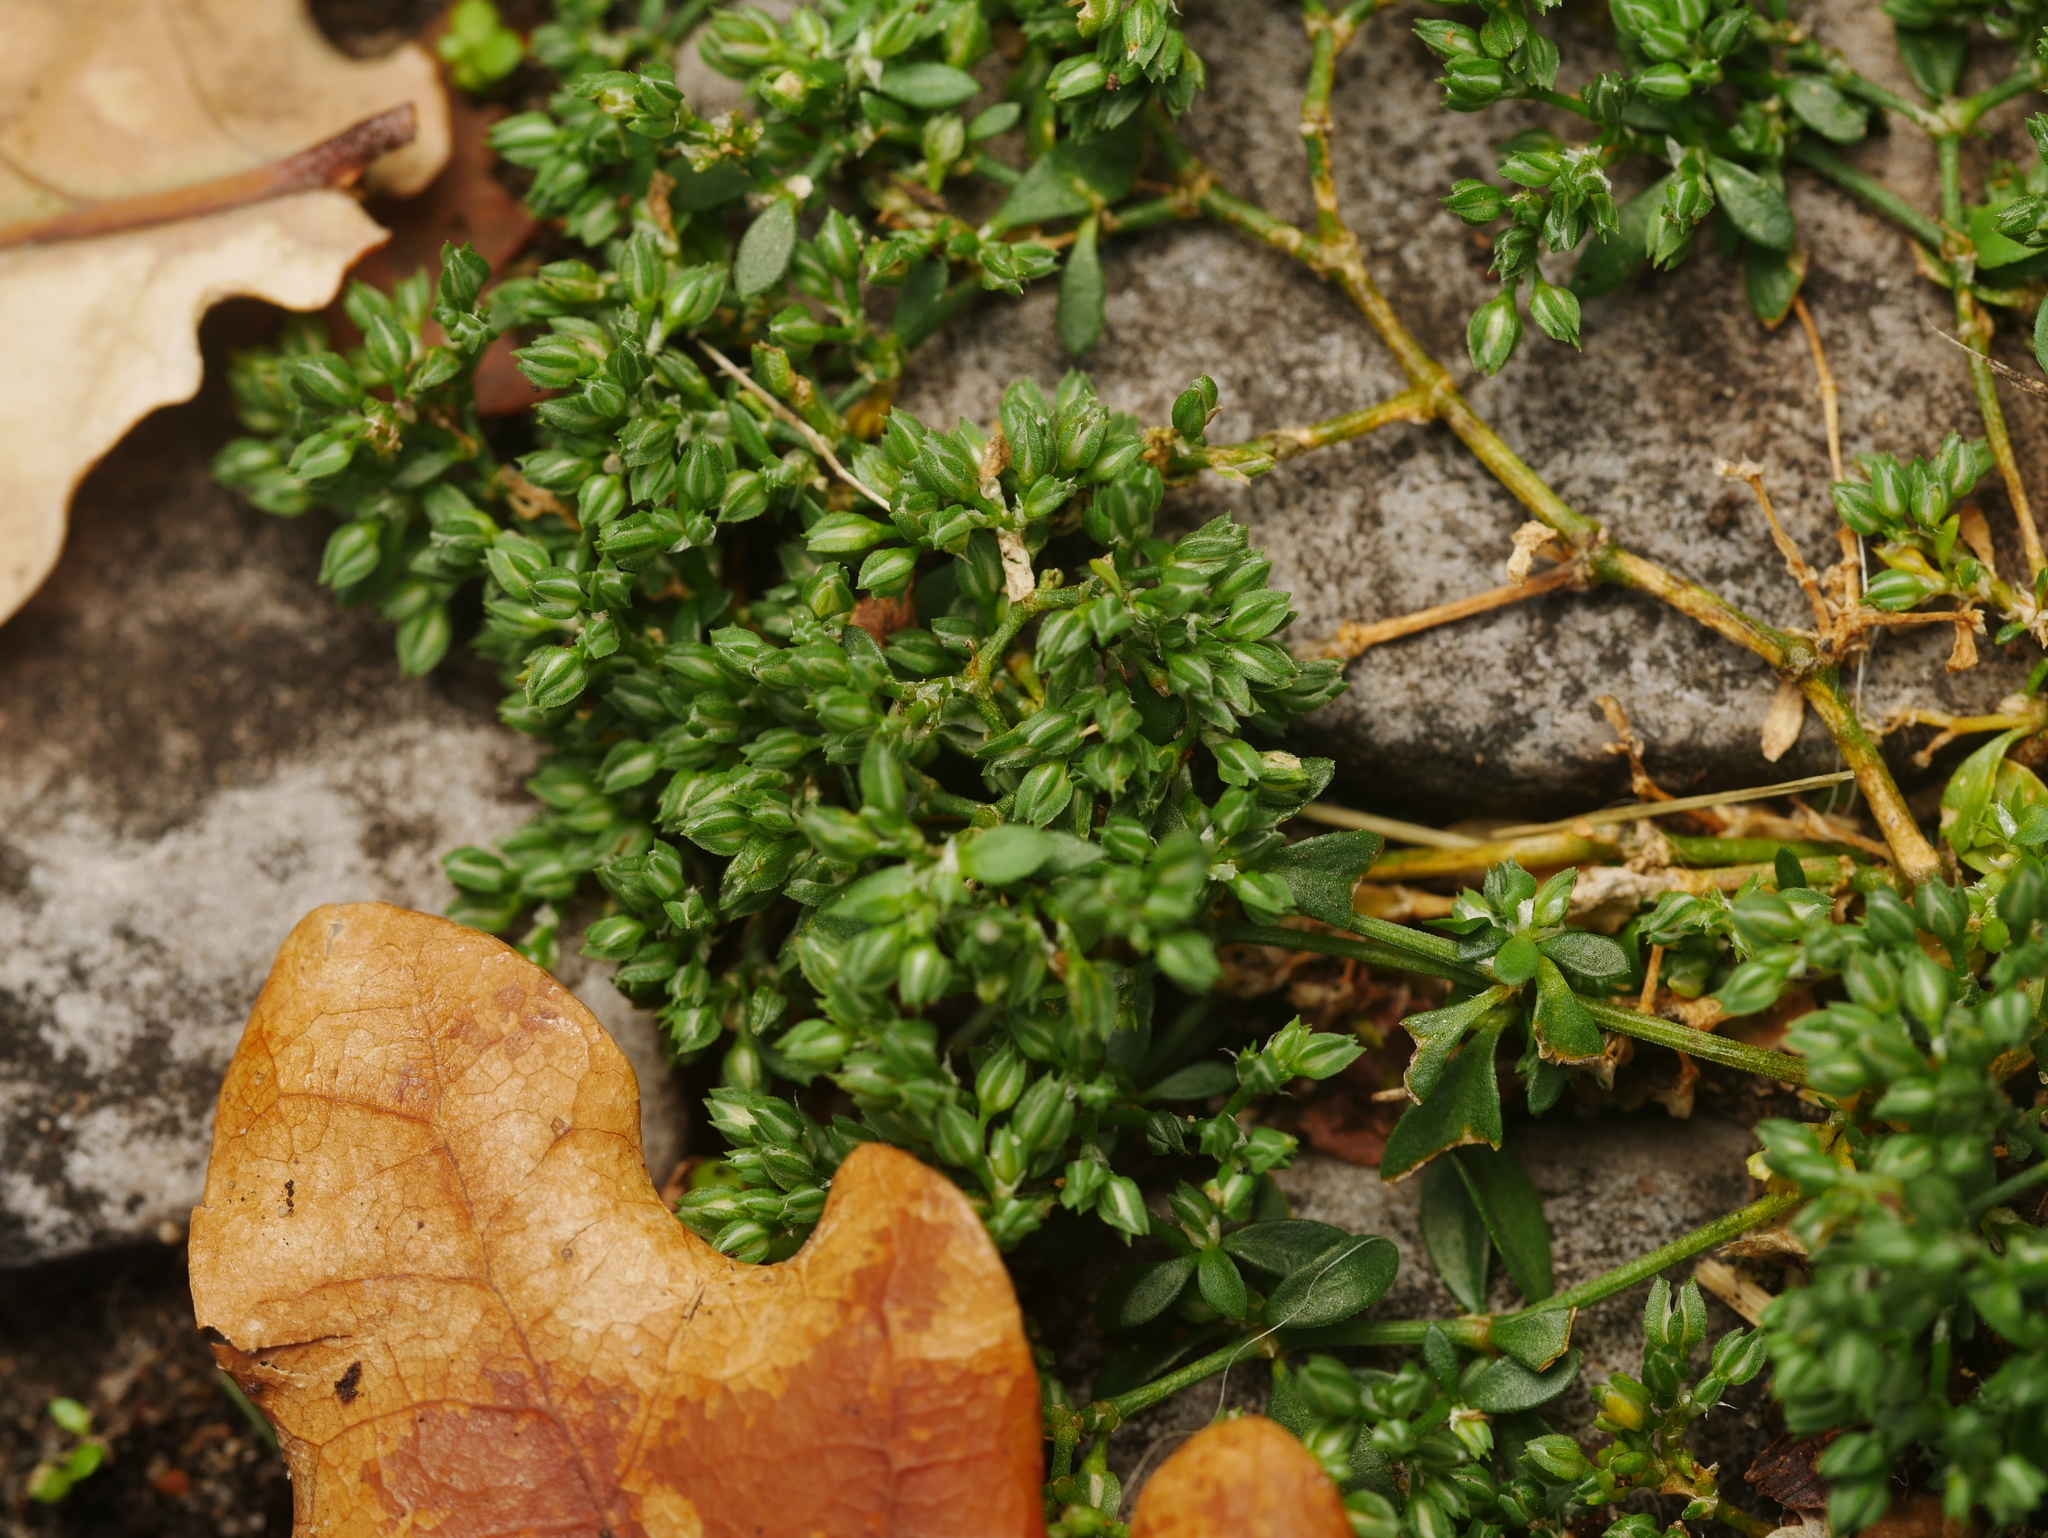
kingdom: Plantae
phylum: Tracheophyta
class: Magnoliopsida
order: Caryophyllales
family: Caryophyllaceae
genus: Polycarpon
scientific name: Polycarpon tetraphyllum
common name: Four-leaved all-seed
